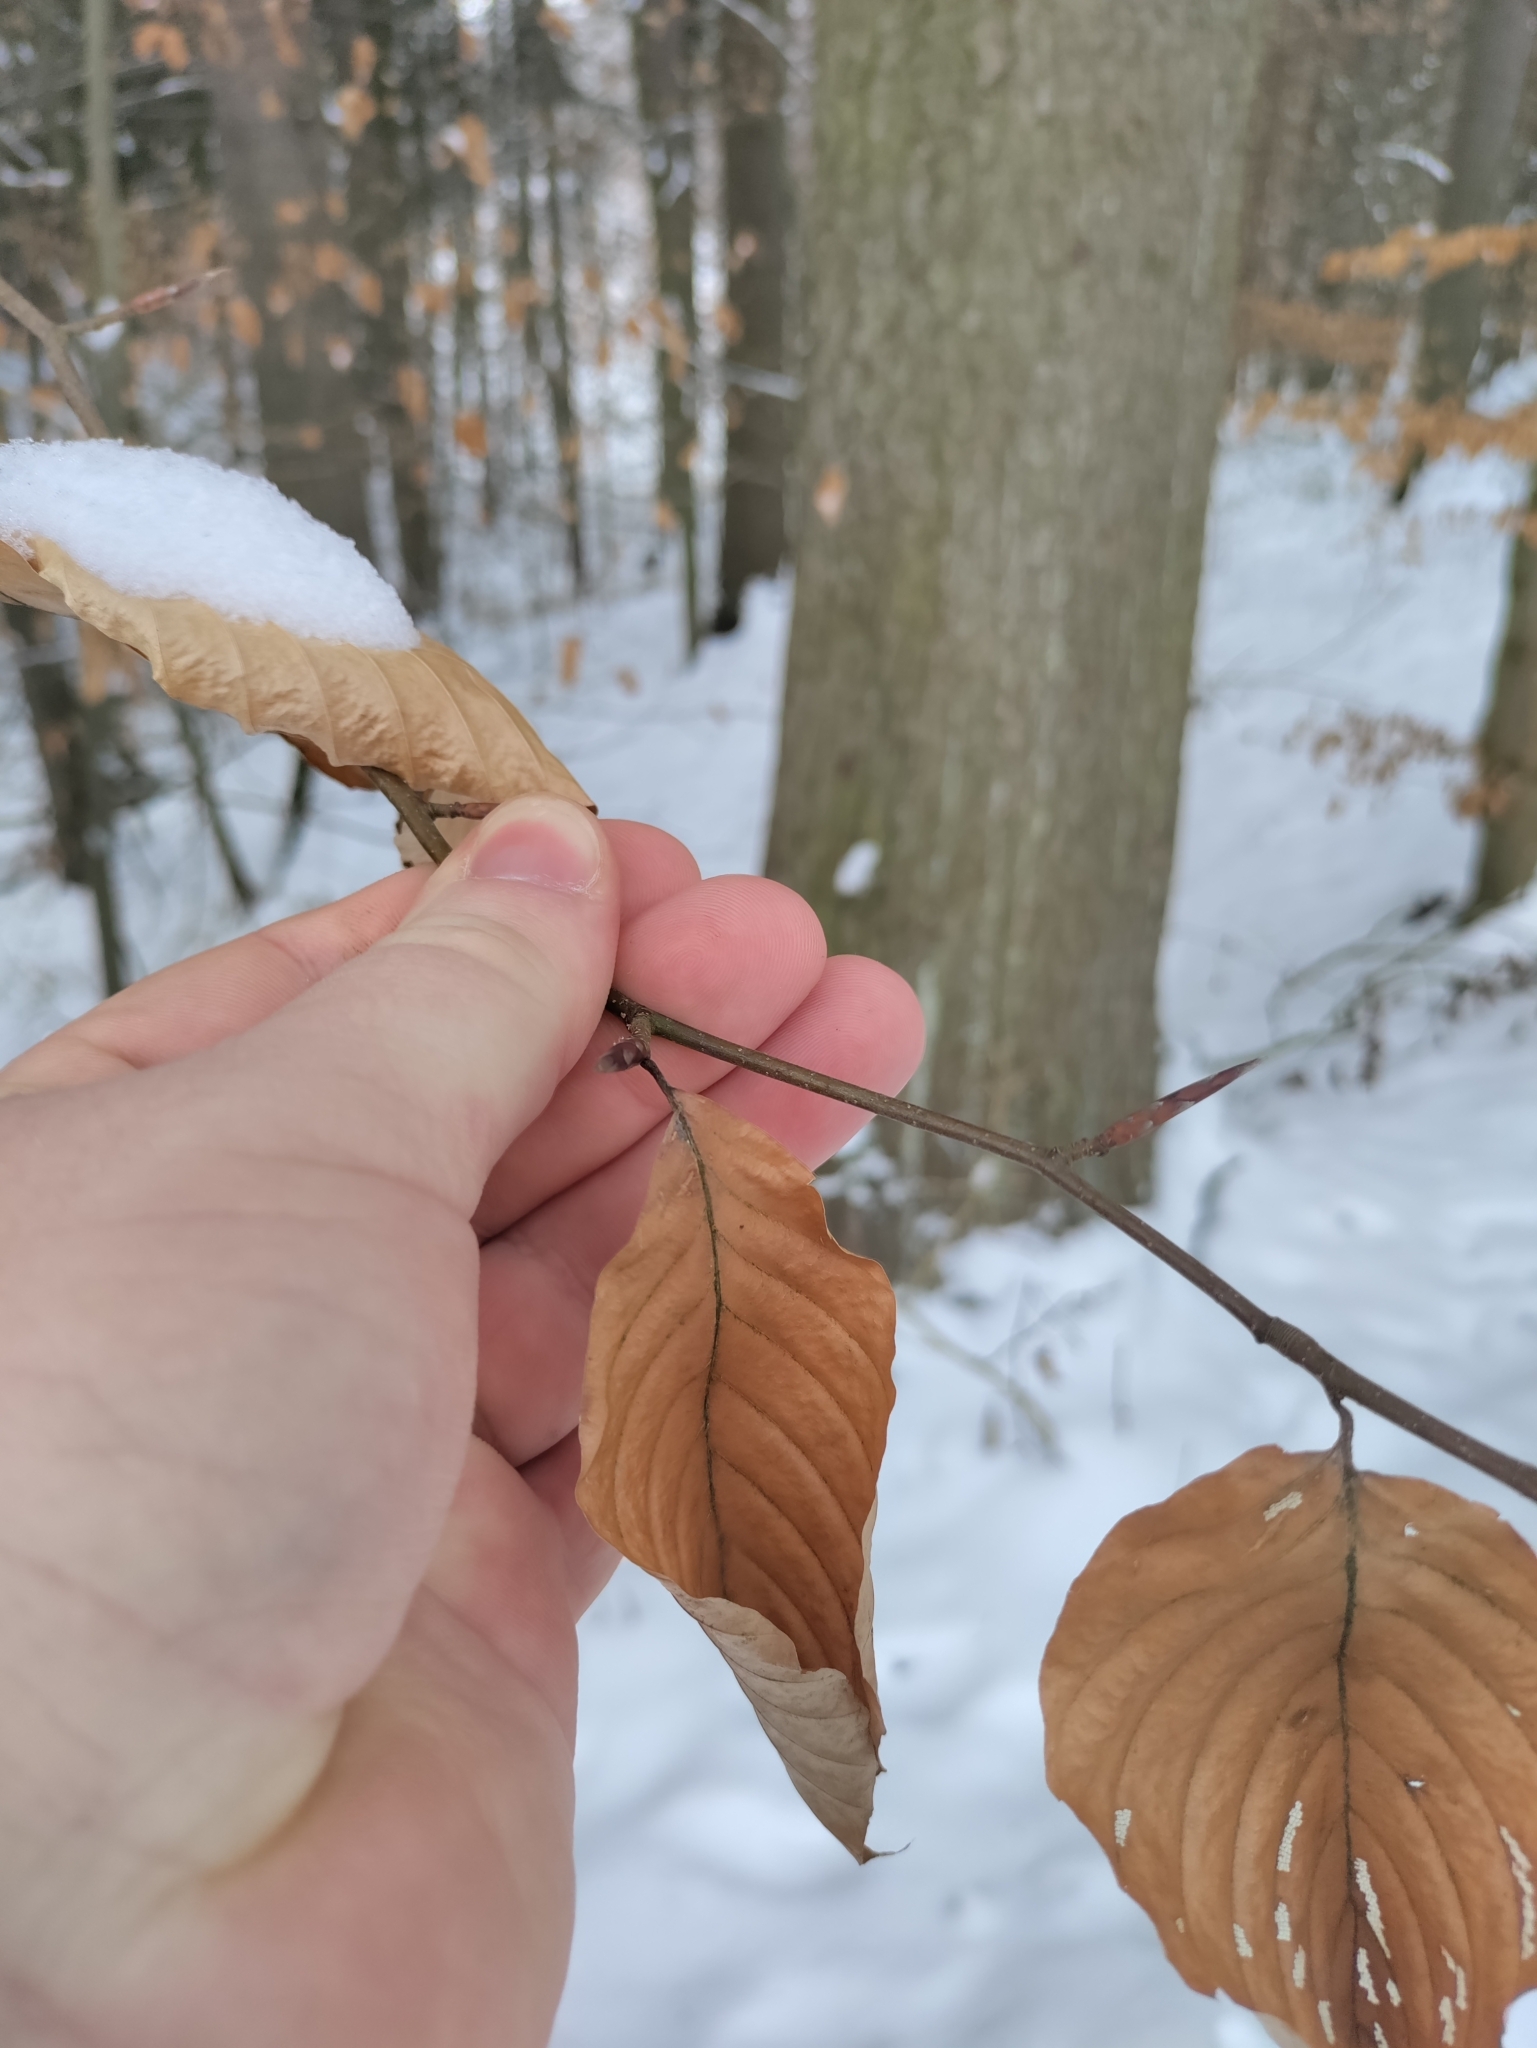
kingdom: Plantae
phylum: Tracheophyta
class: Magnoliopsida
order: Fagales
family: Fagaceae
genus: Fagus
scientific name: Fagus sylvatica
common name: Beech
